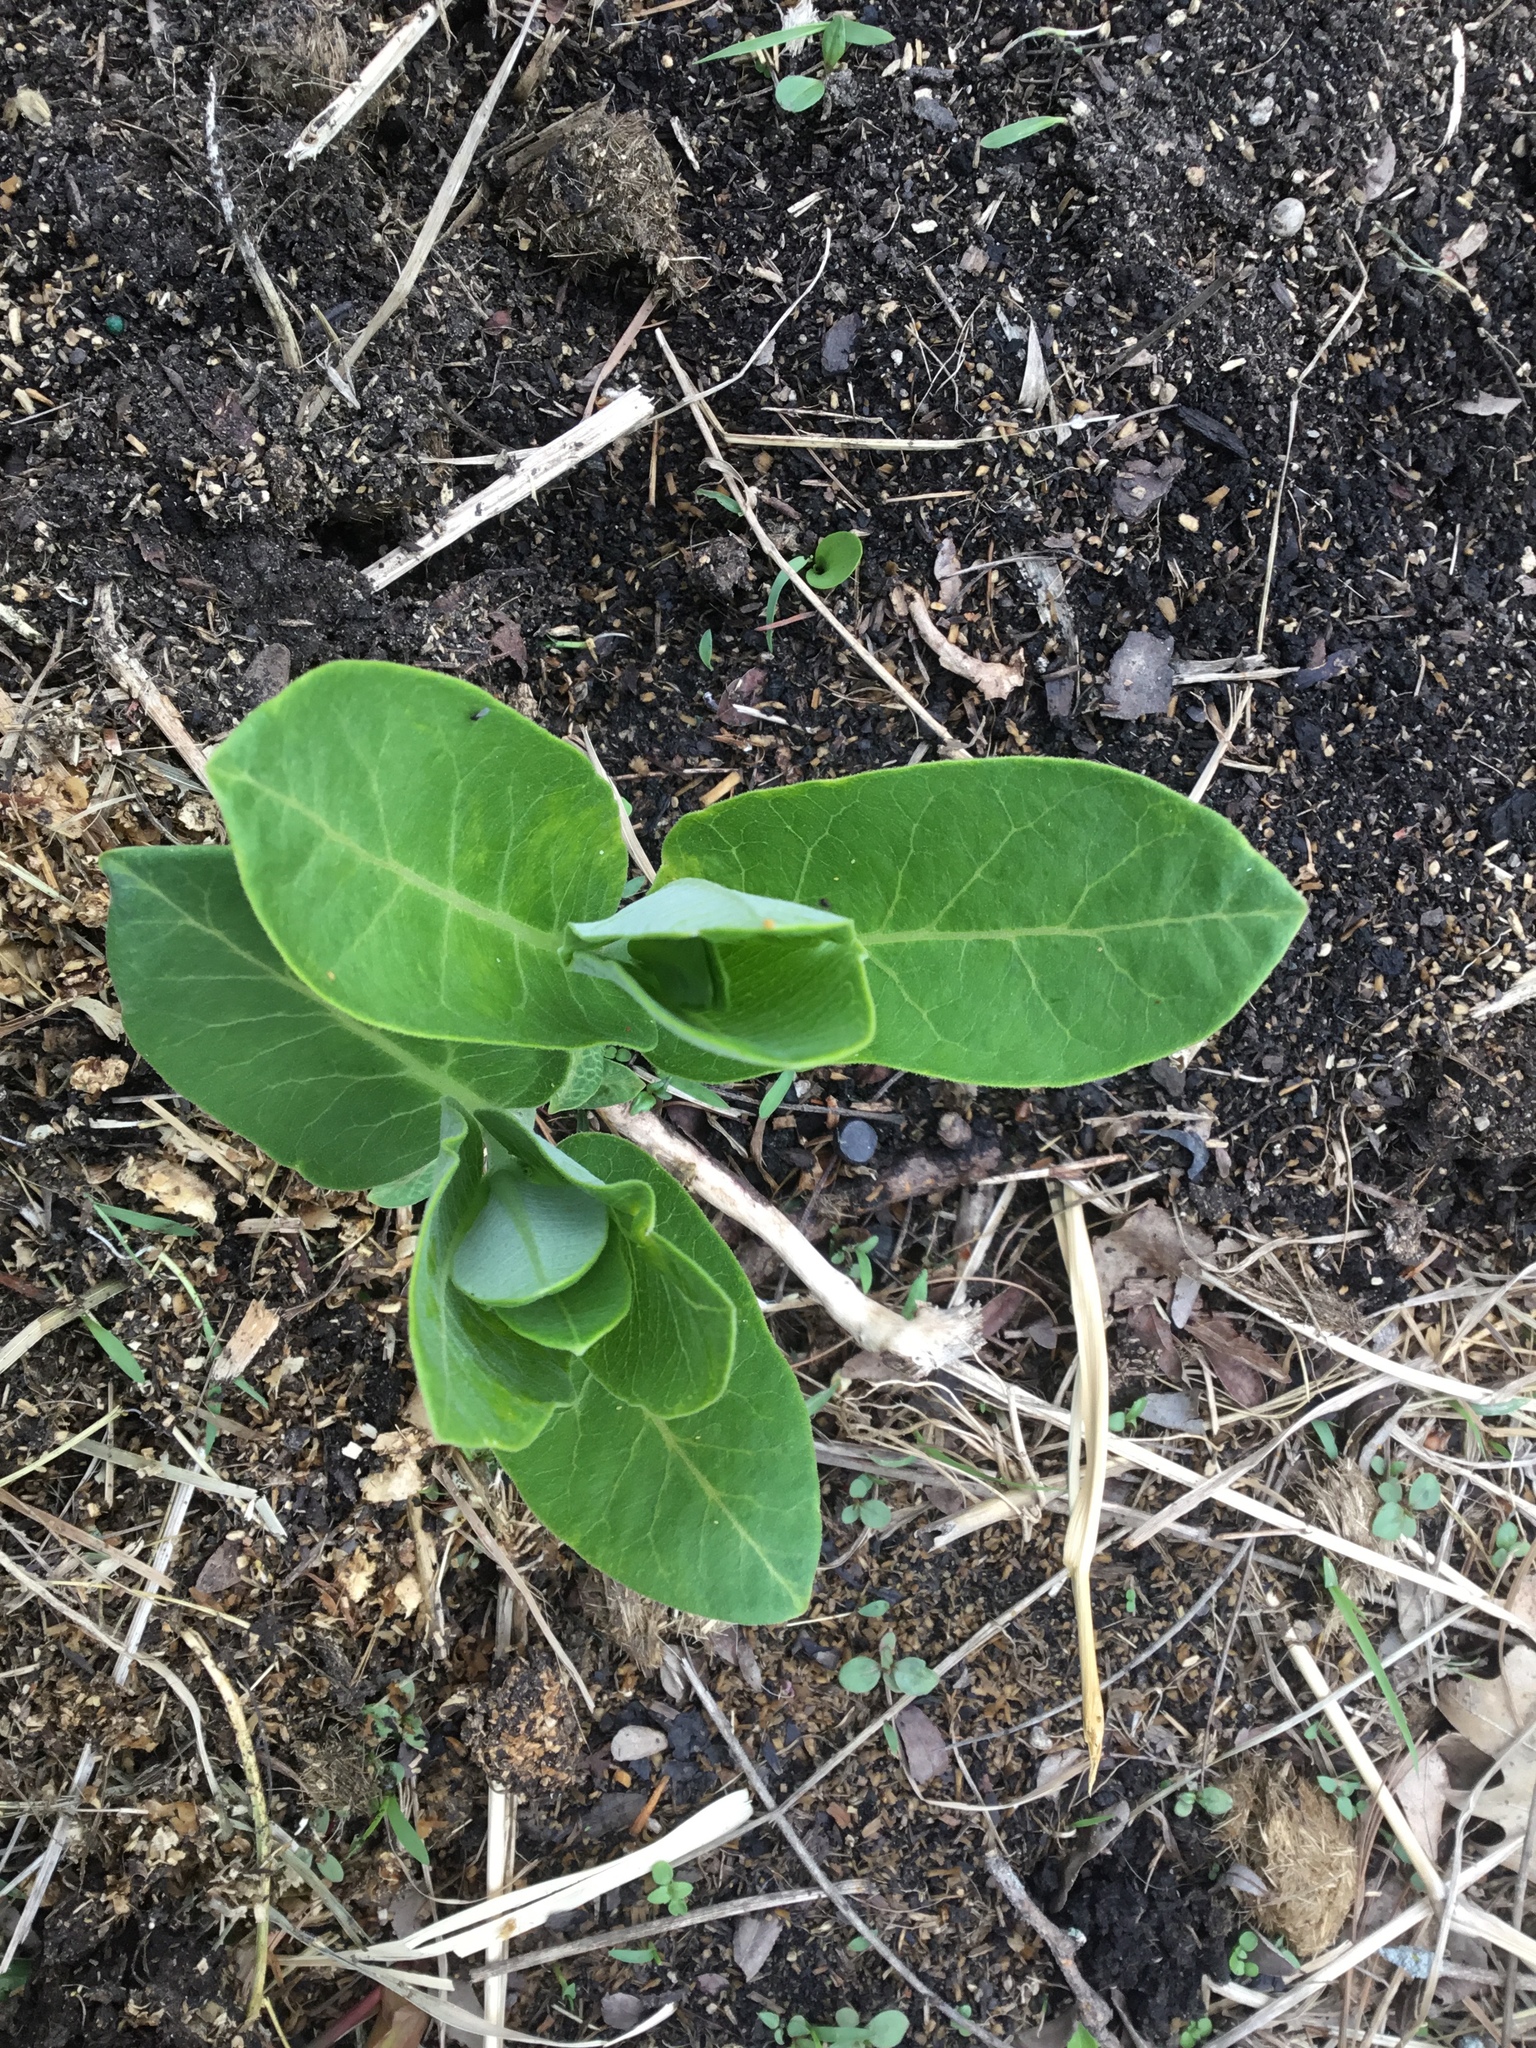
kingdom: Plantae
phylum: Tracheophyta
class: Magnoliopsida
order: Gentianales
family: Apocynaceae
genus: Asclepias
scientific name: Asclepias syriaca
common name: Common milkweed
